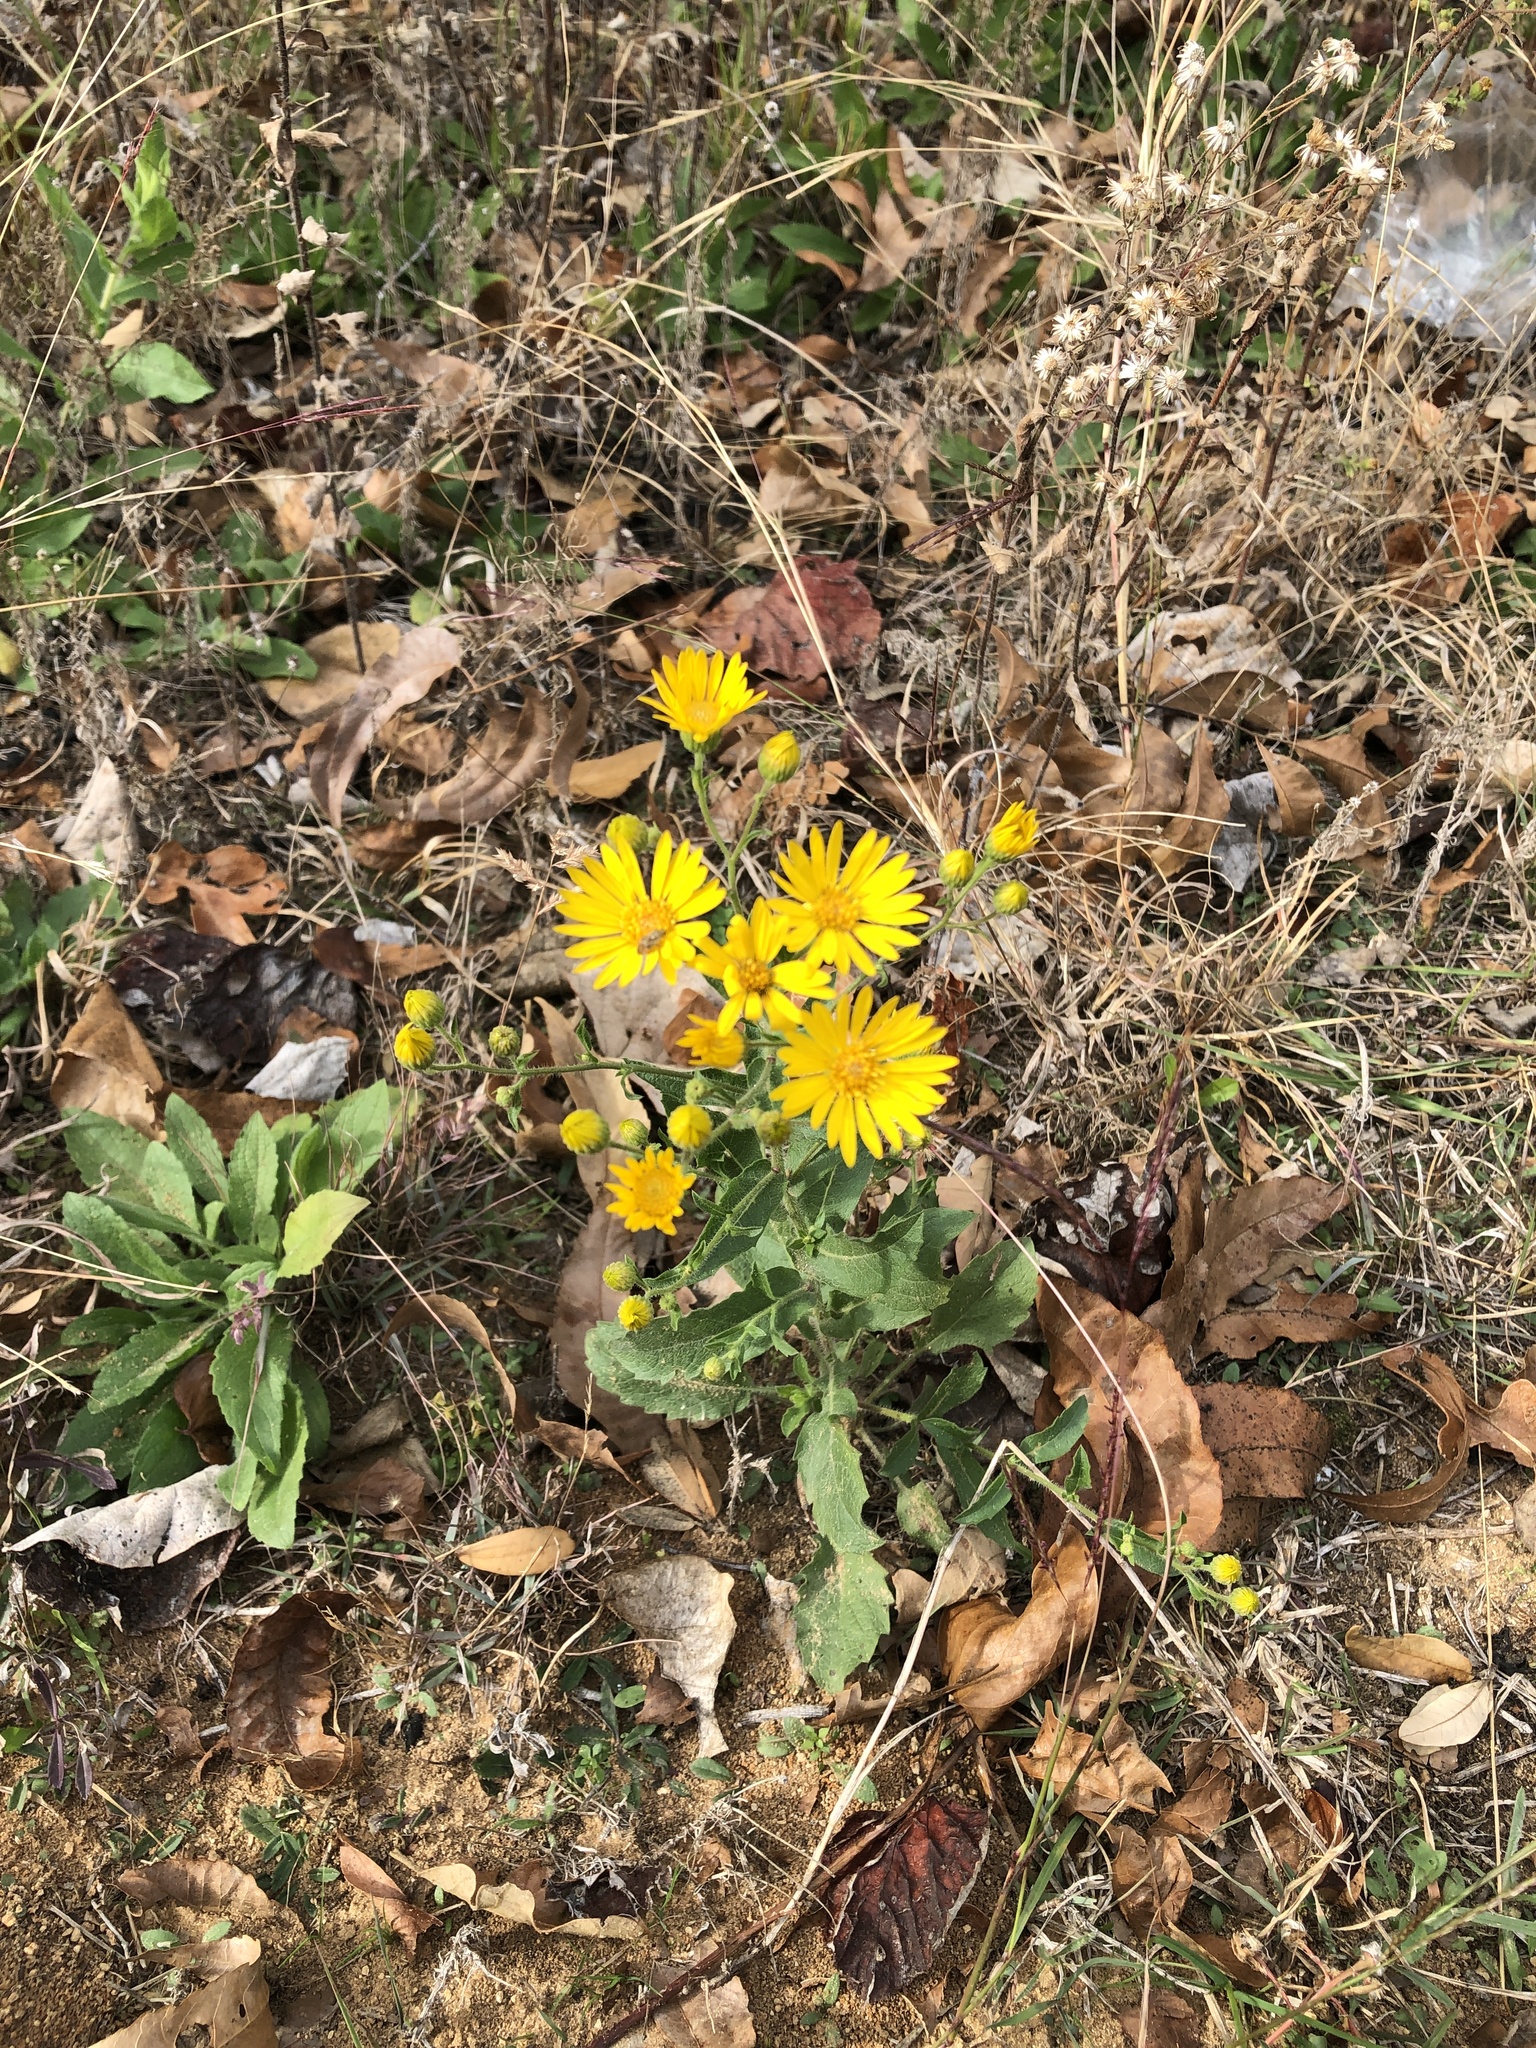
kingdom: Plantae
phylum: Tracheophyta
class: Magnoliopsida
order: Asterales
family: Asteraceae
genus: Heterotheca
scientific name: Heterotheca subaxillaris
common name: Camphorweed
